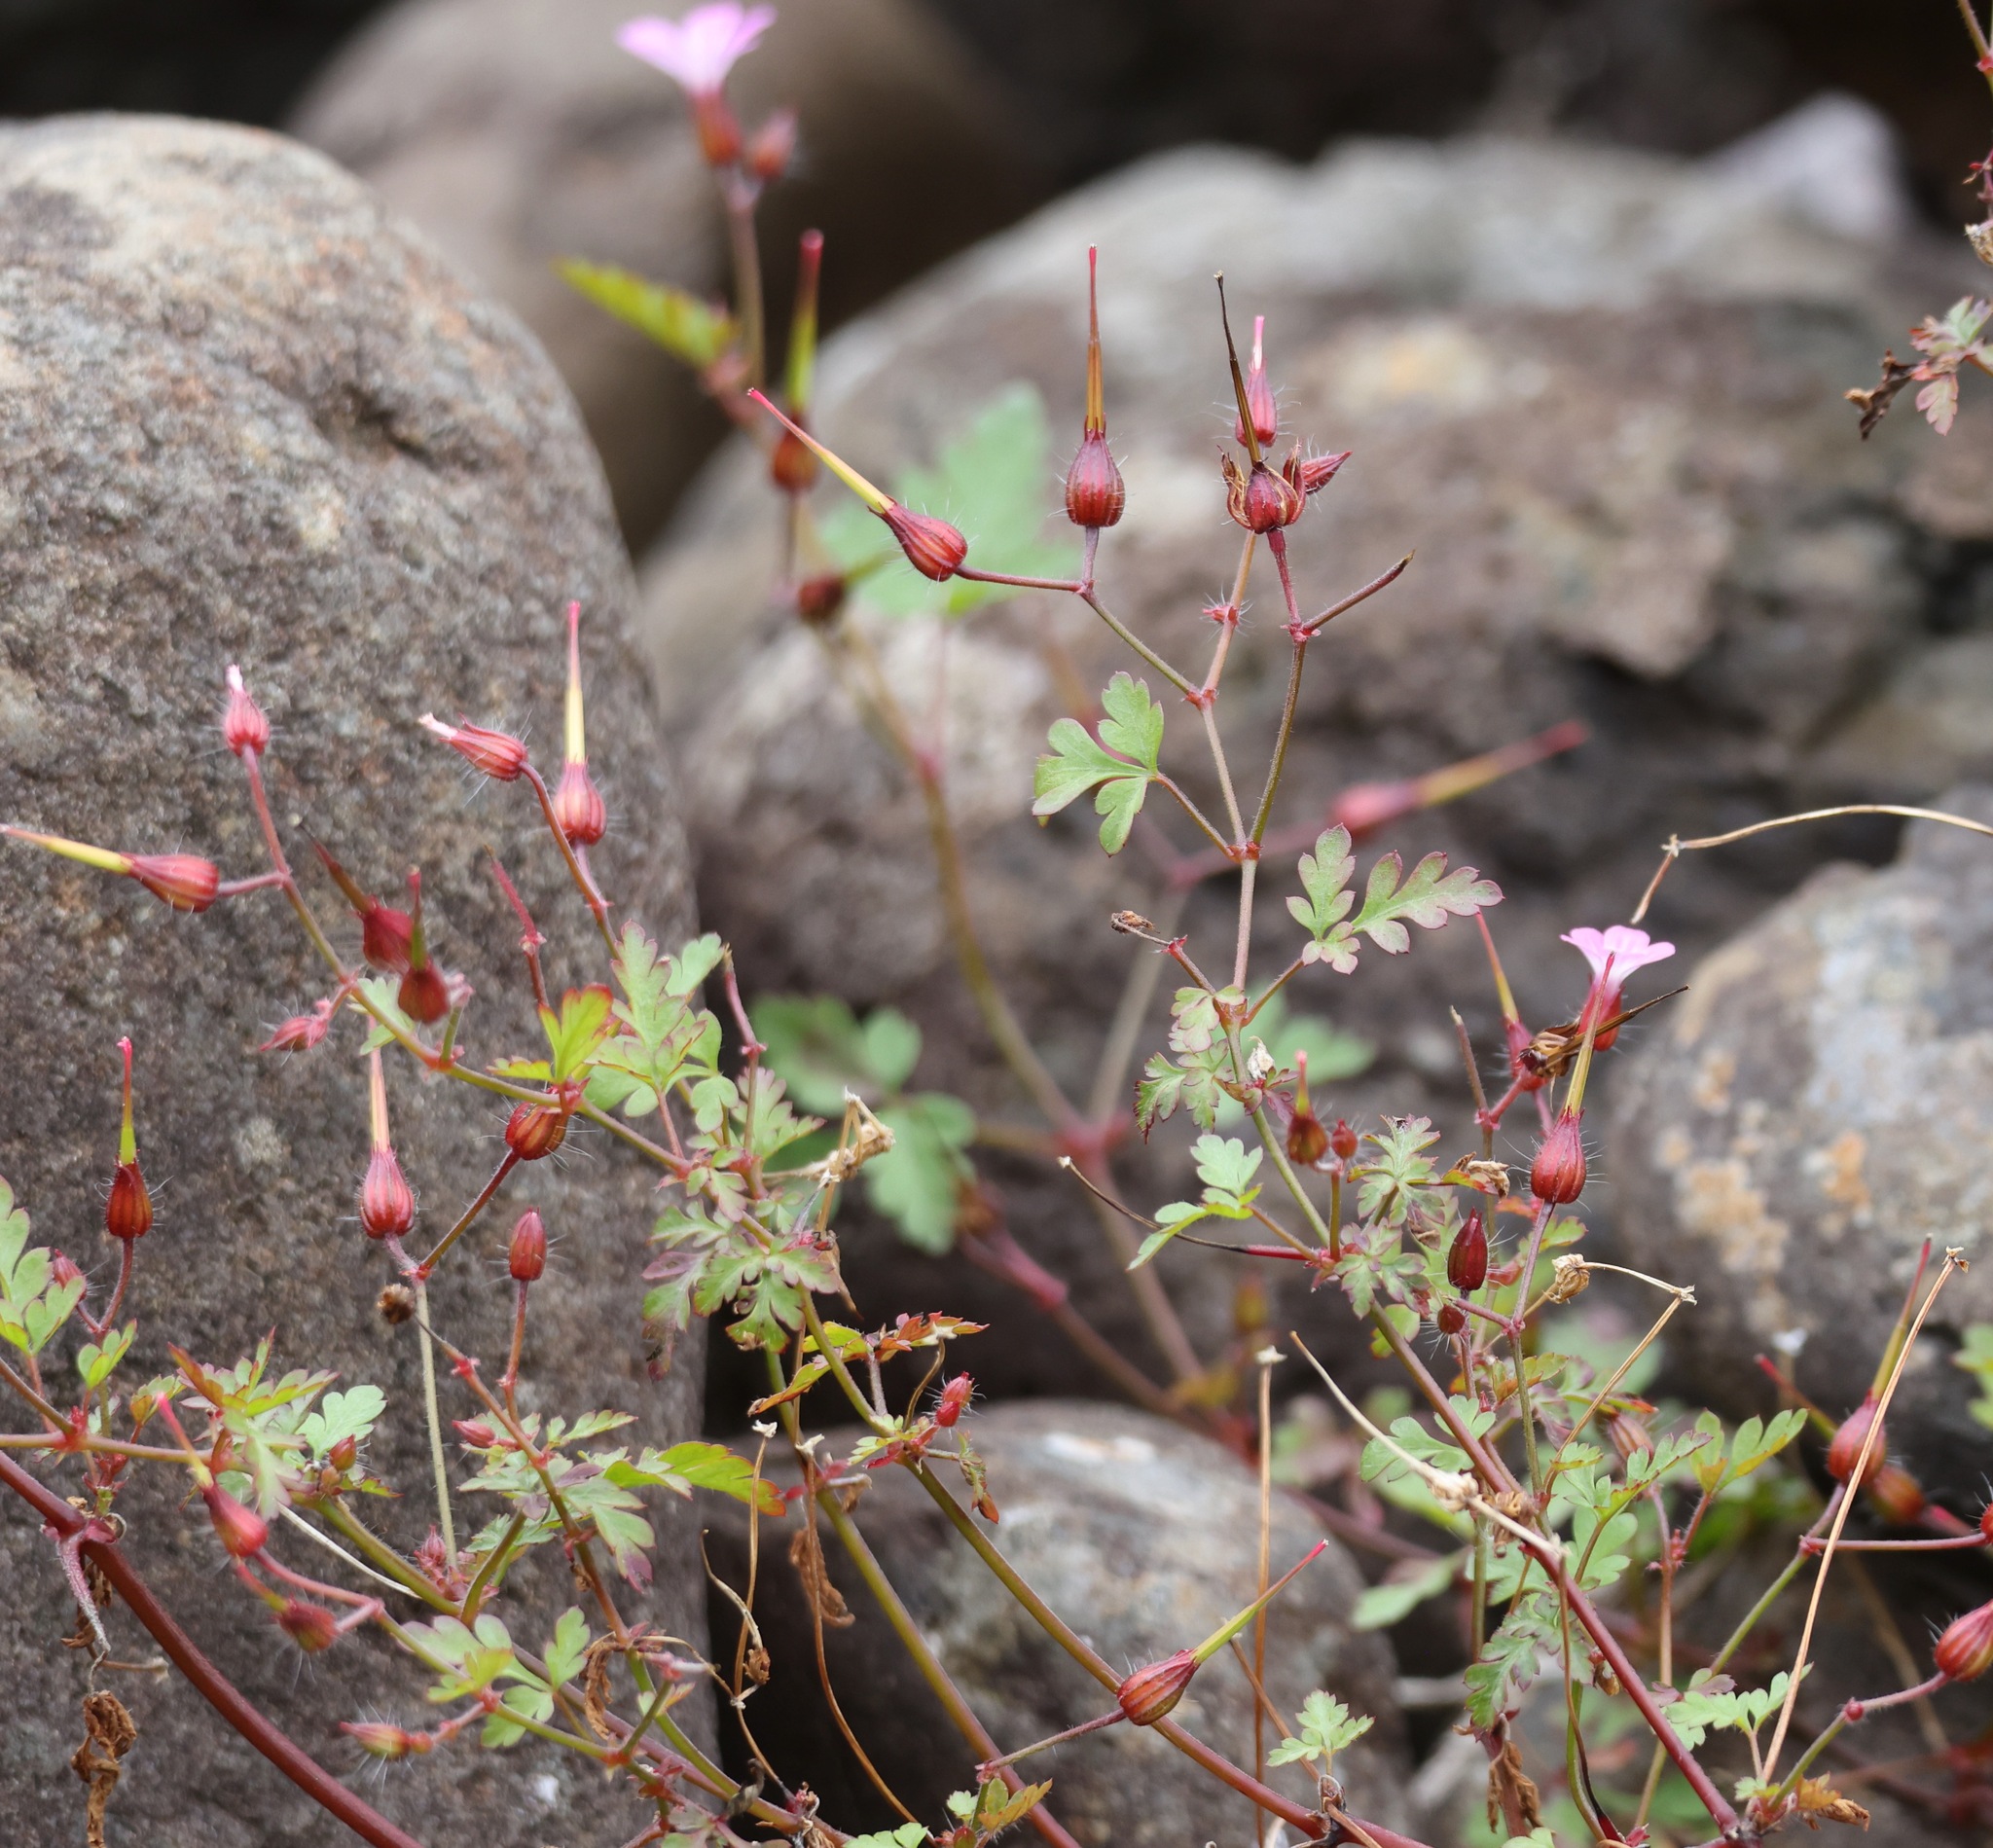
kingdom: Plantae
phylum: Tracheophyta
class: Magnoliopsida
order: Geraniales
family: Geraniaceae
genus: Geranium
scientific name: Geranium robertianum
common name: Herb-robert
